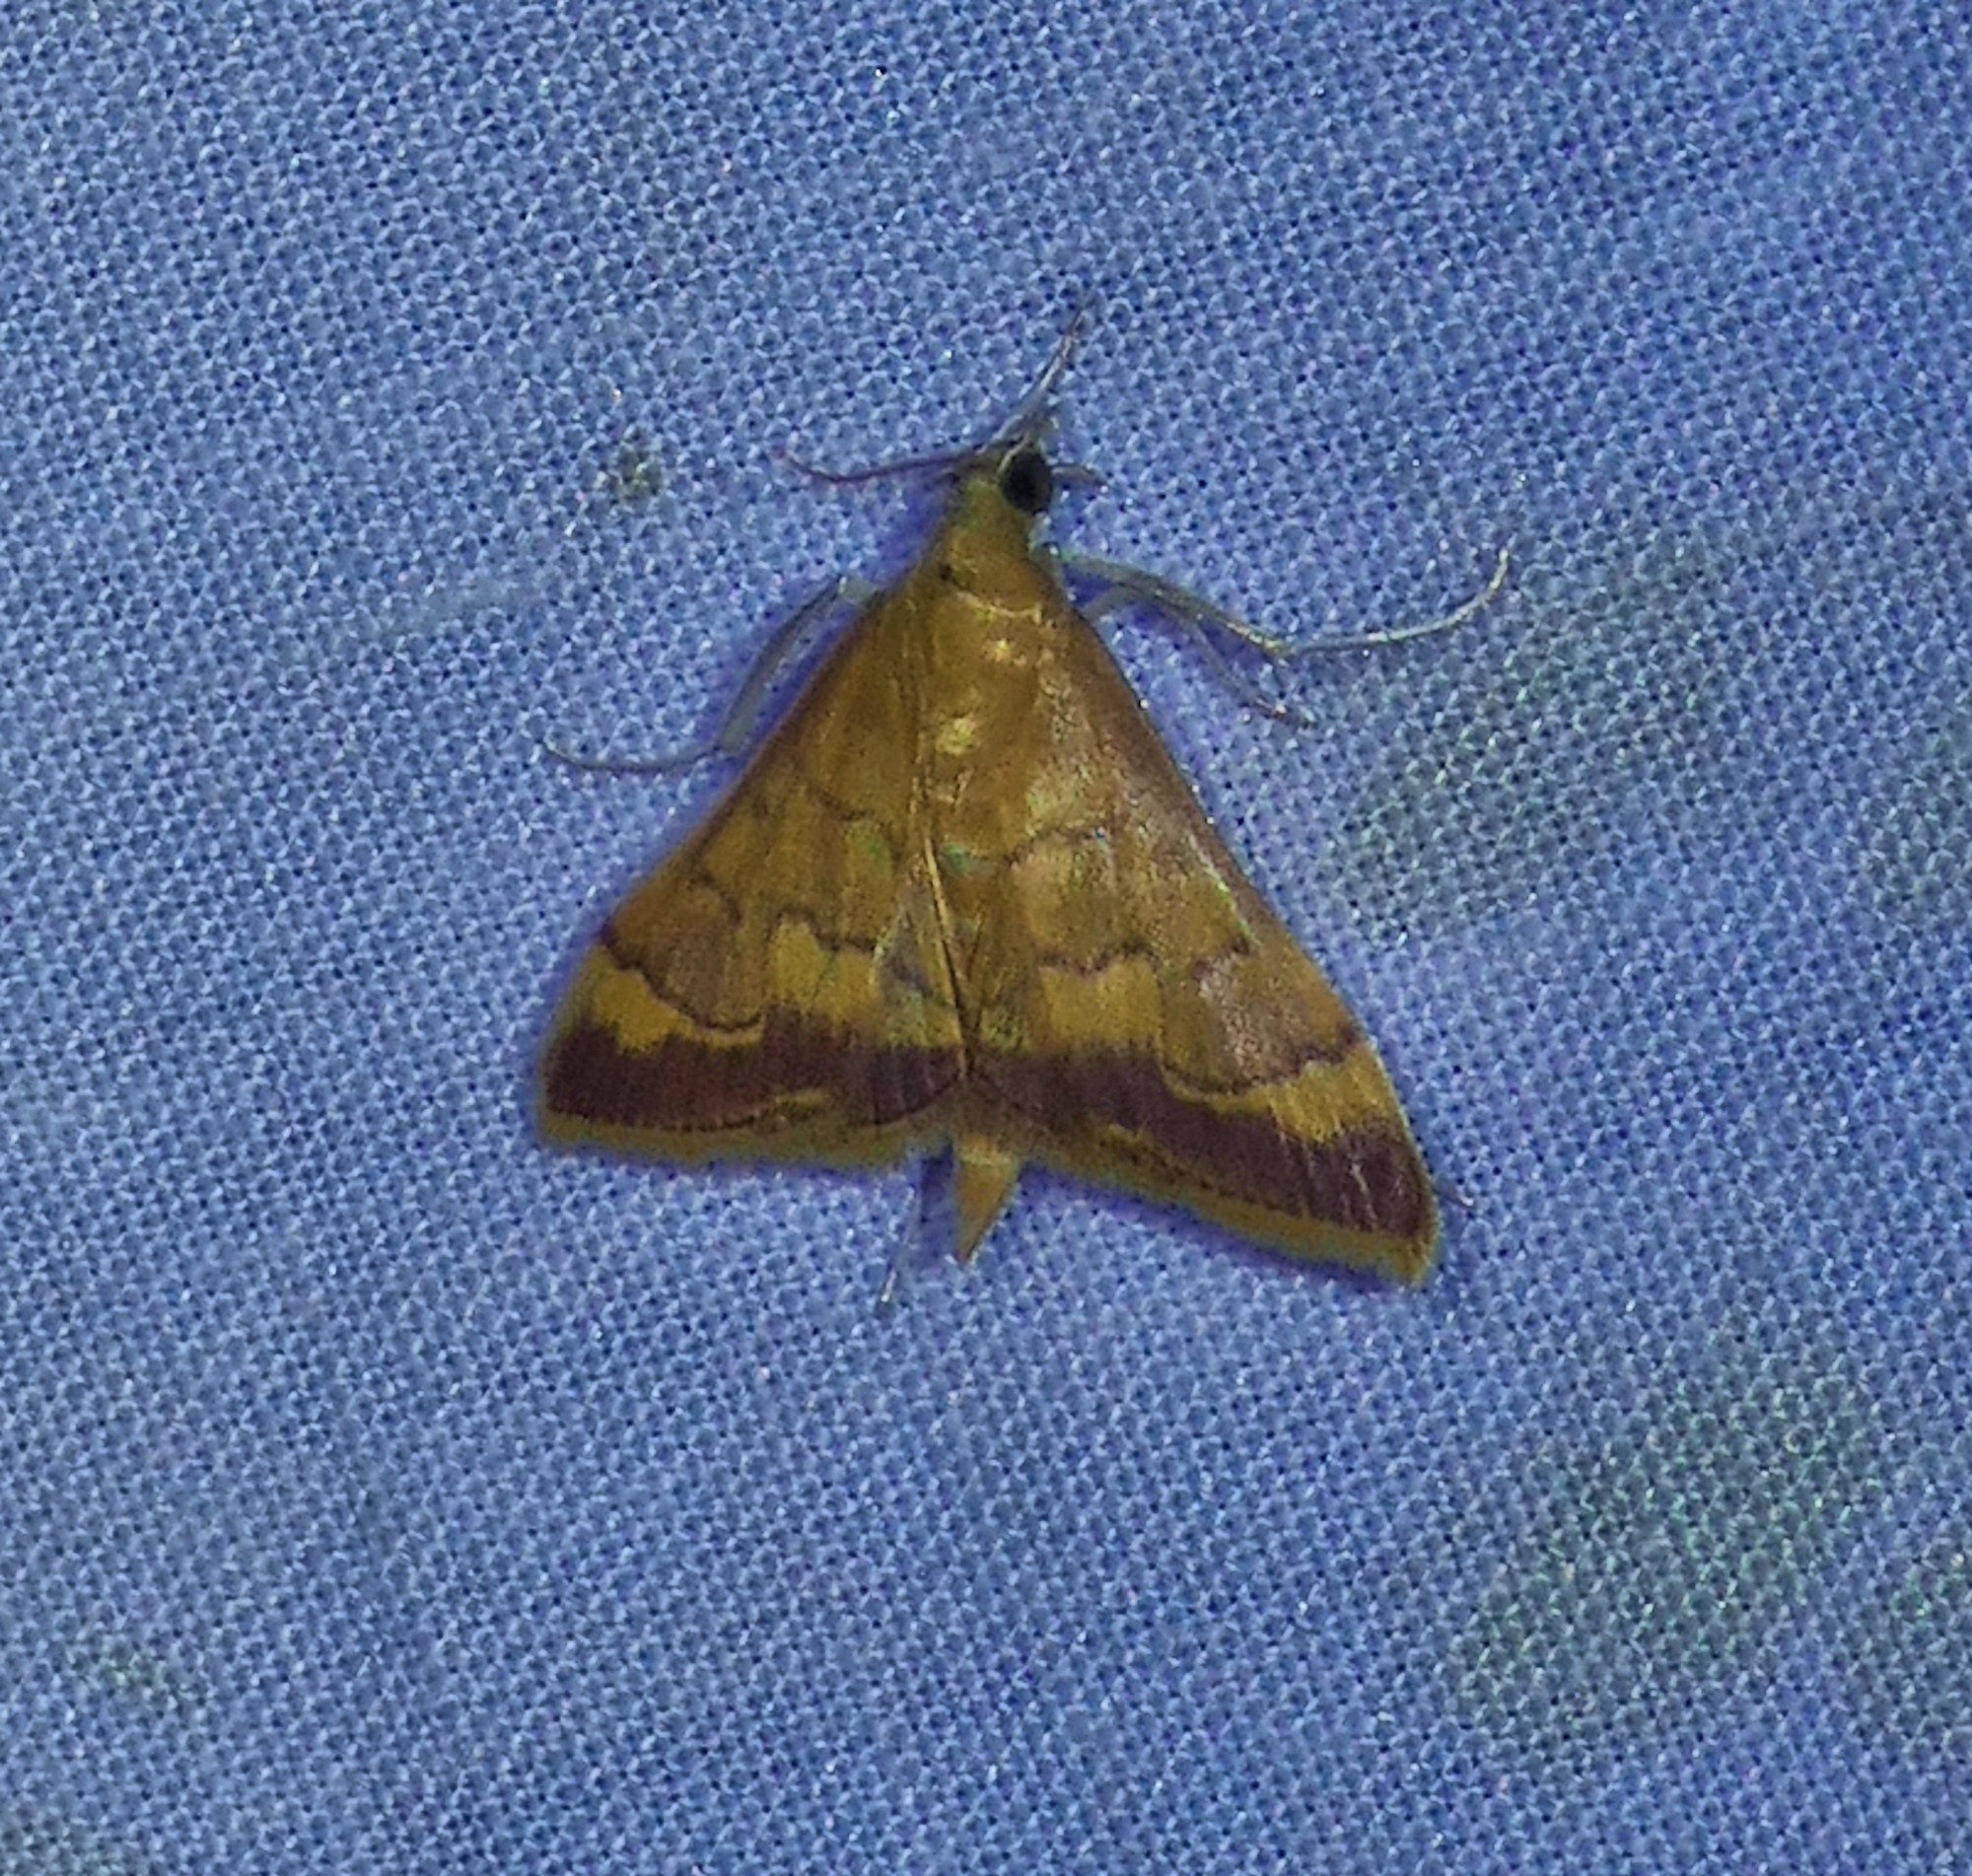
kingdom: Animalia
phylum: Arthropoda
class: Insecta
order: Lepidoptera
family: Crambidae
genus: Pyrausta
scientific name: Pyrausta pseudonythesalis
